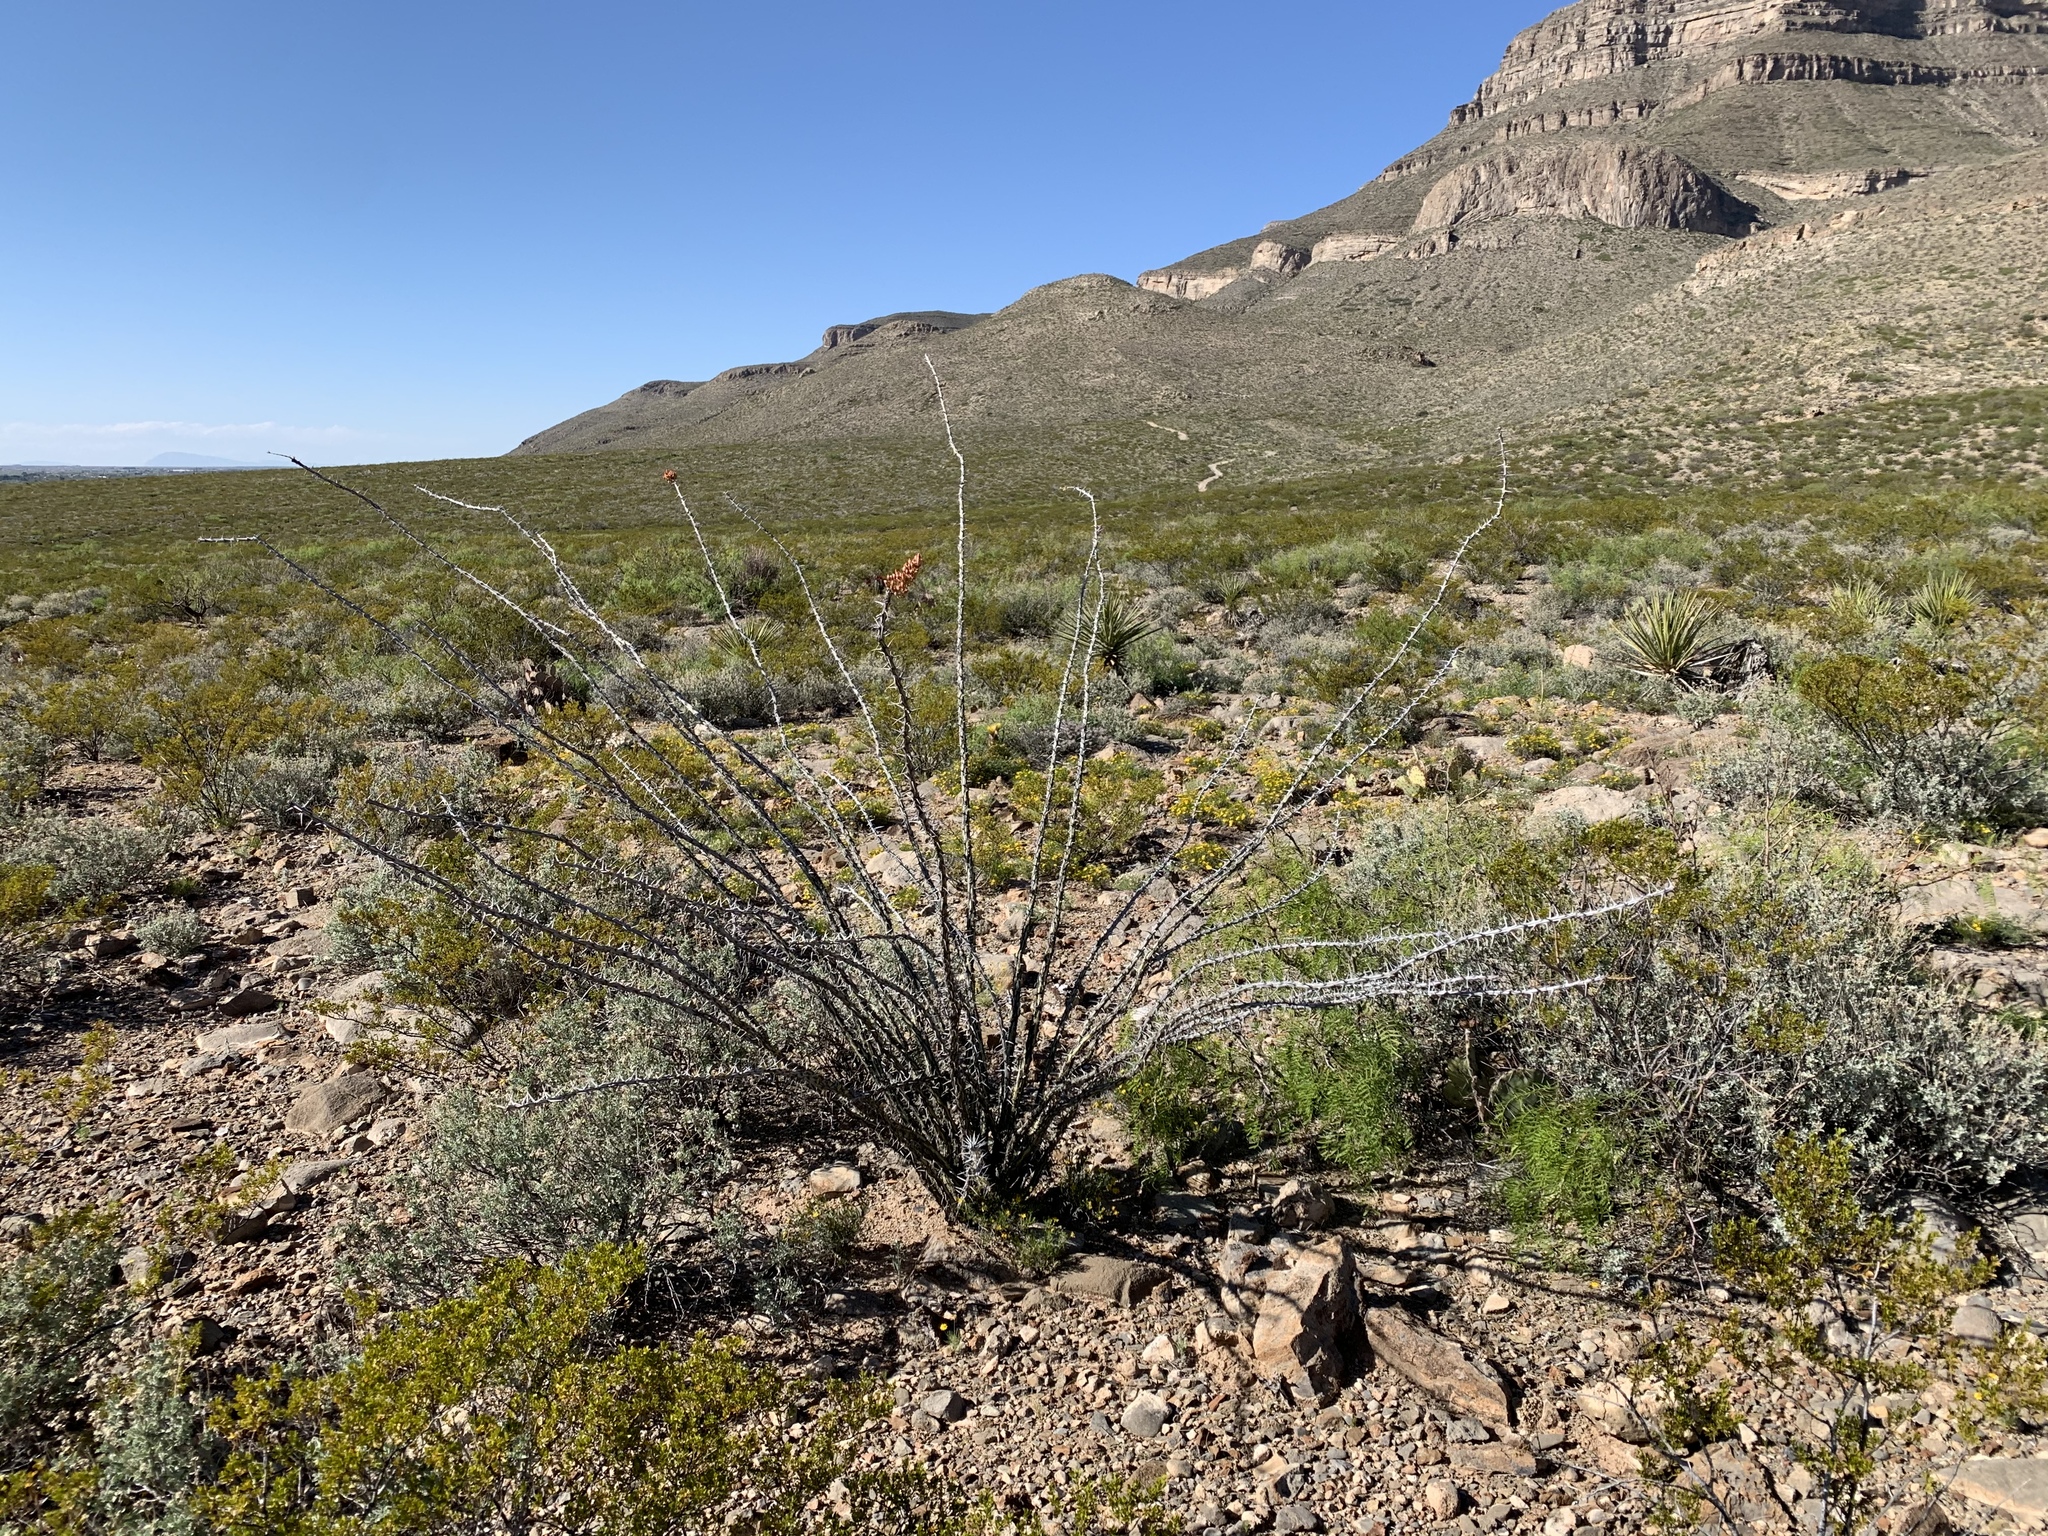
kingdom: Plantae
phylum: Tracheophyta
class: Magnoliopsida
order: Ericales
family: Fouquieriaceae
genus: Fouquieria
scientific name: Fouquieria splendens
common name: Vine-cactus
